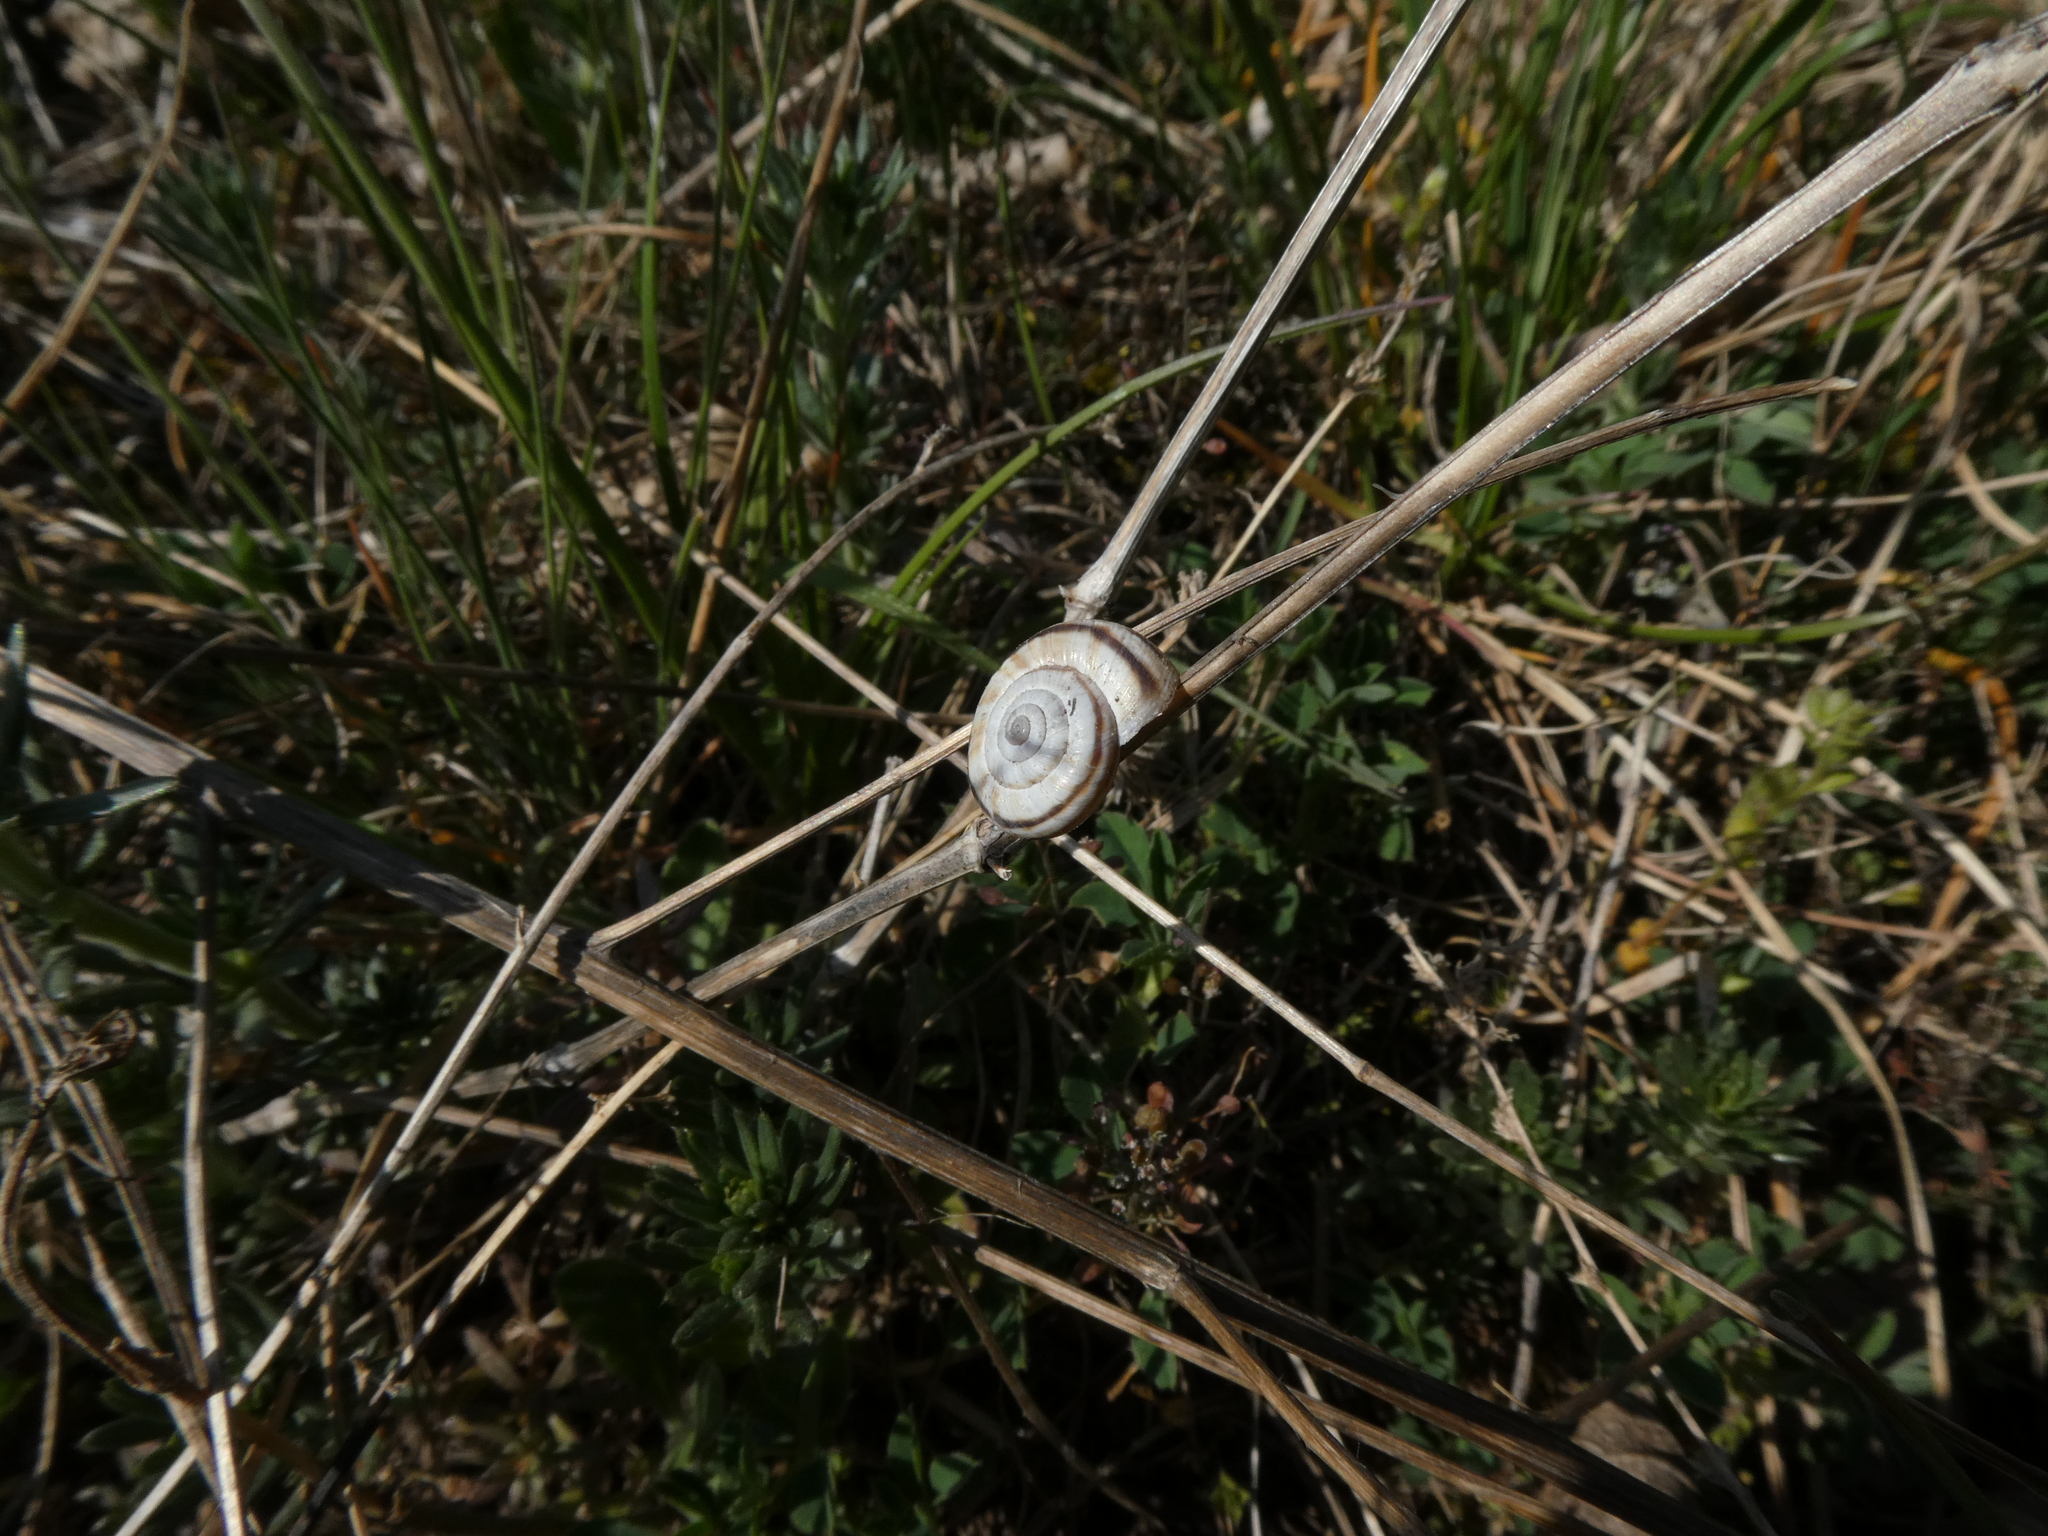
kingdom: Animalia
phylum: Mollusca
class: Gastropoda
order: Stylommatophora
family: Geomitridae
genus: Xerolenta
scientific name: Xerolenta obvia
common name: White heath snail
